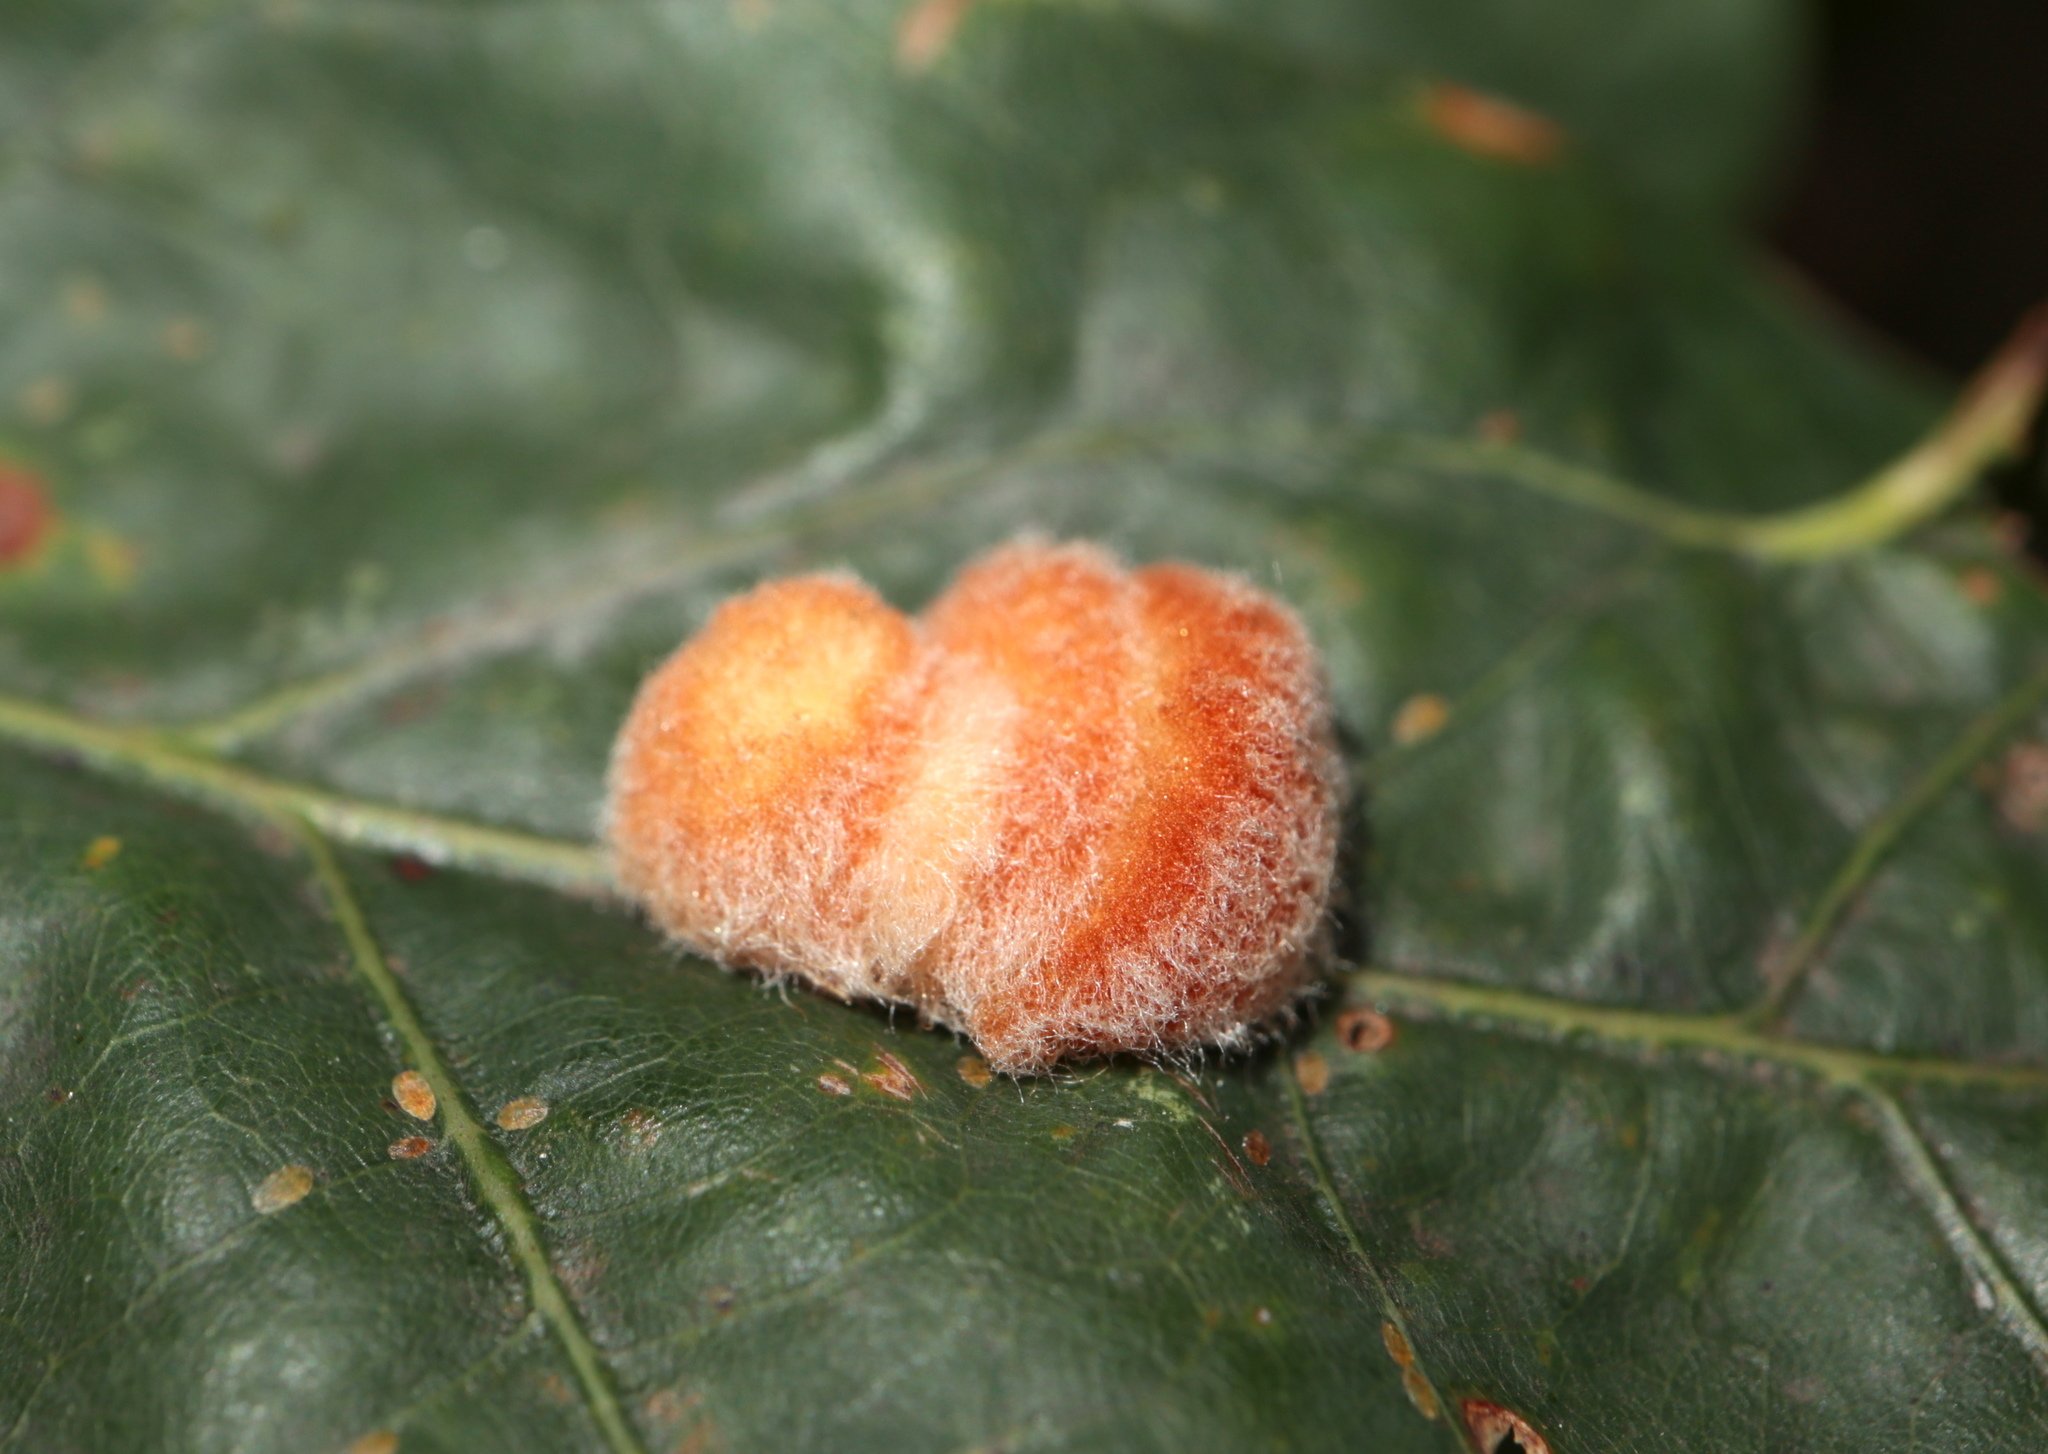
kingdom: Animalia
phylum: Arthropoda
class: Insecta
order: Hymenoptera
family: Cynipidae
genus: Andricus
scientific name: Andricus quercusflocci
